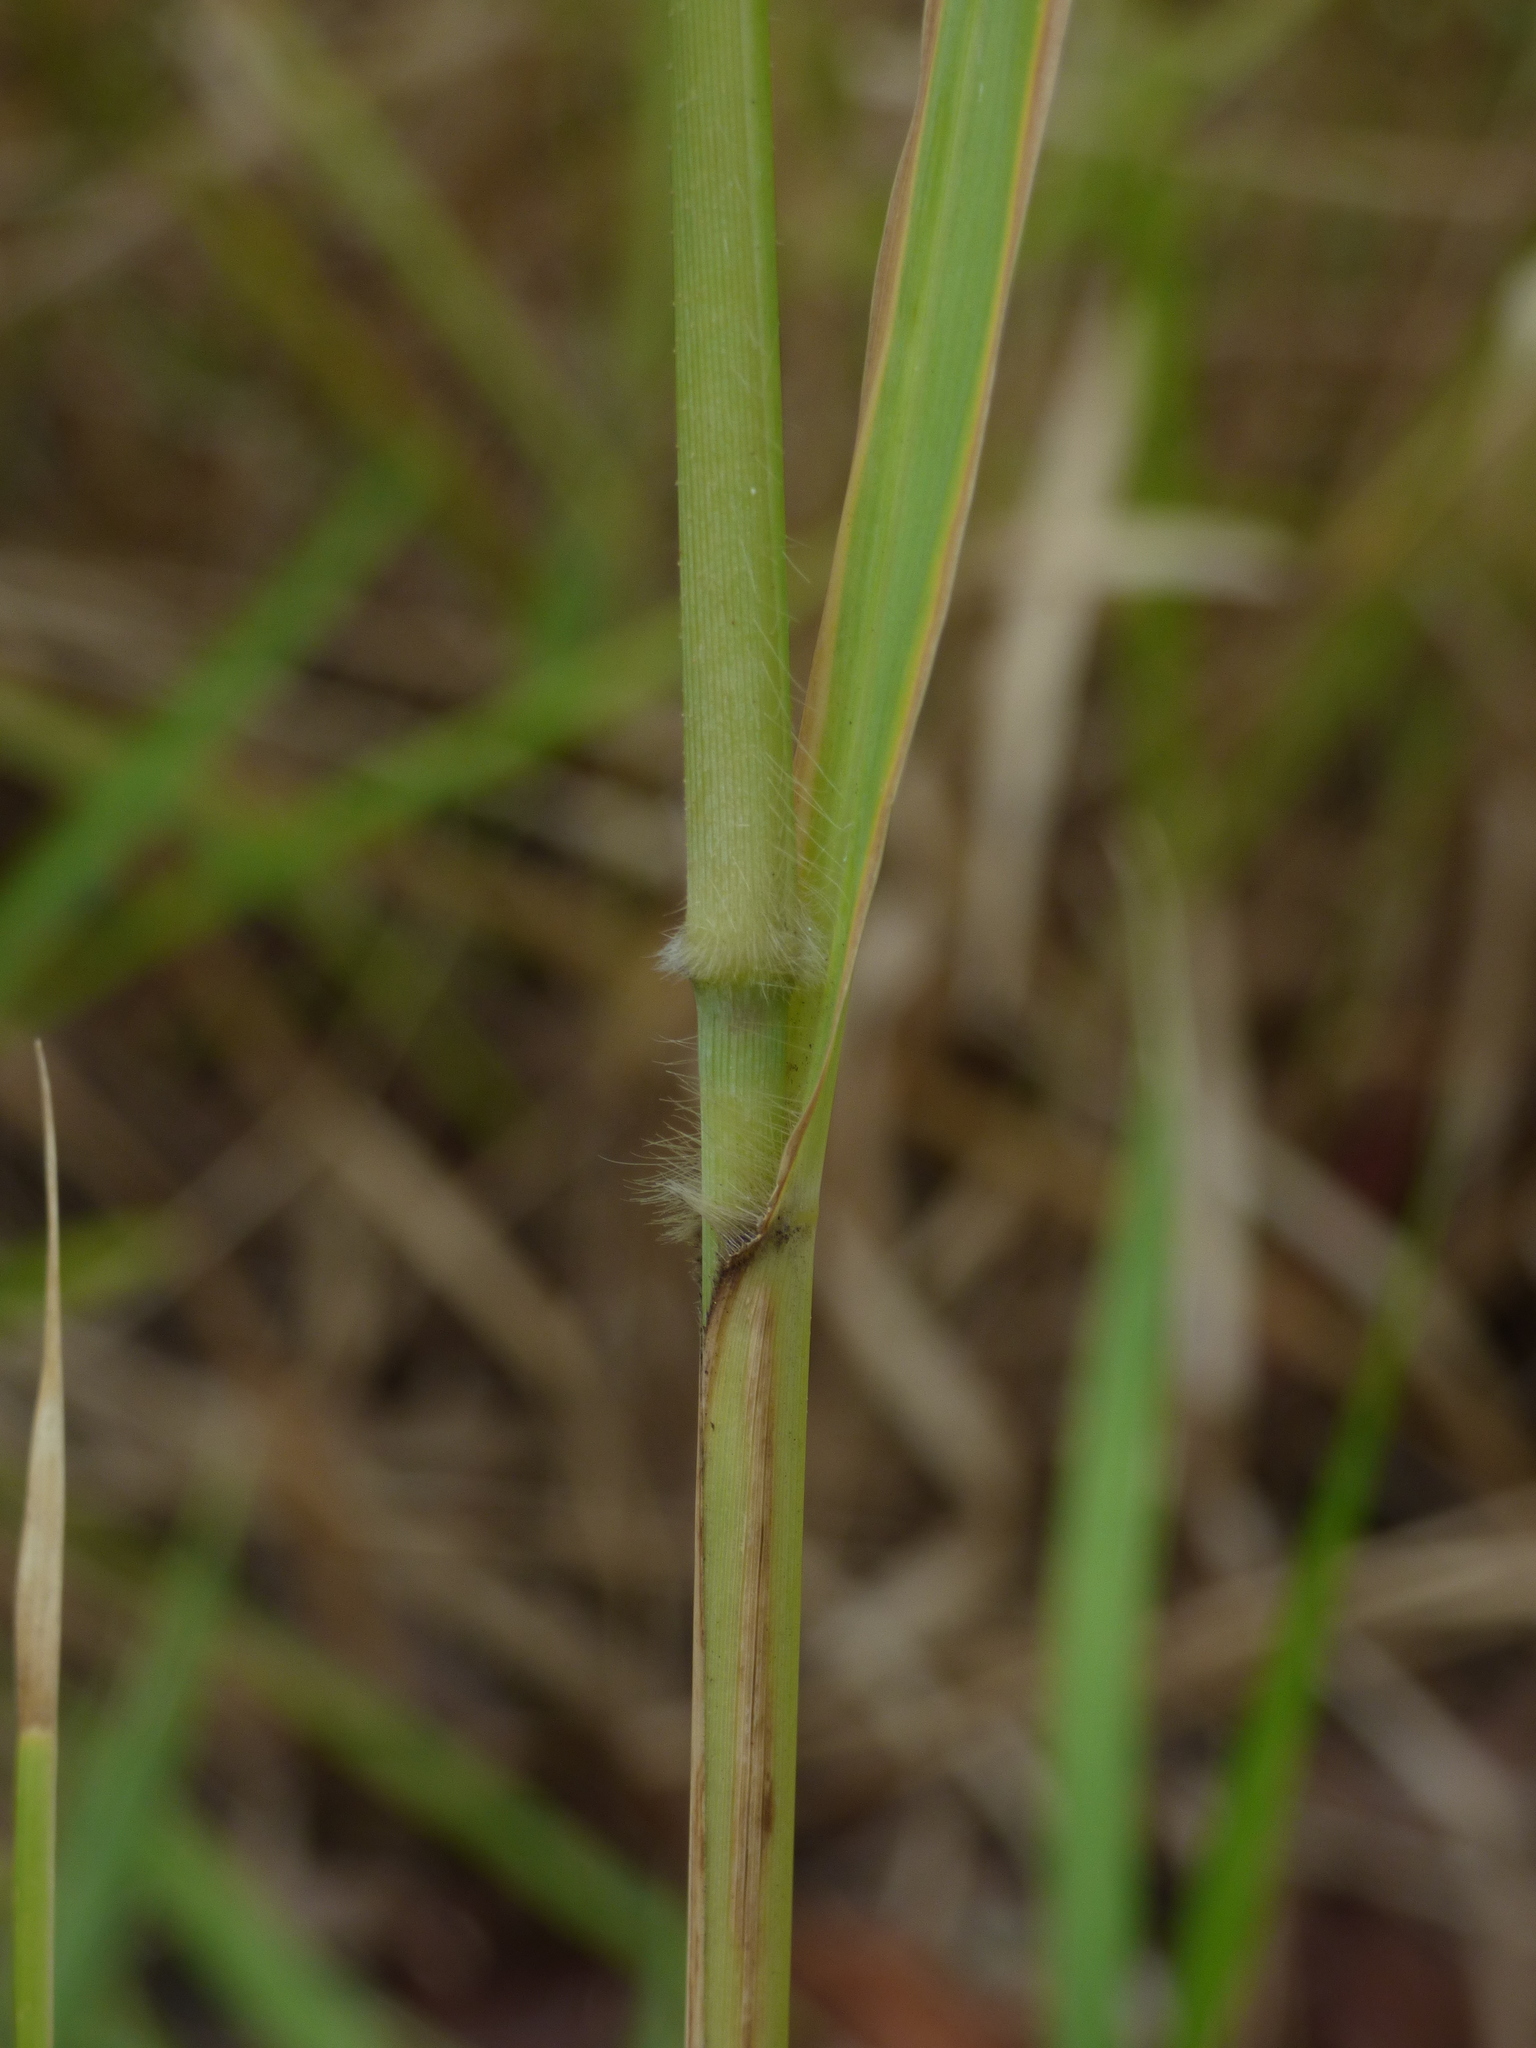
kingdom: Plantae
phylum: Tracheophyta
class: Liliopsida
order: Poales
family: Poaceae
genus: Megathyrsus
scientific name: Megathyrsus maximus
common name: Guineagrass
